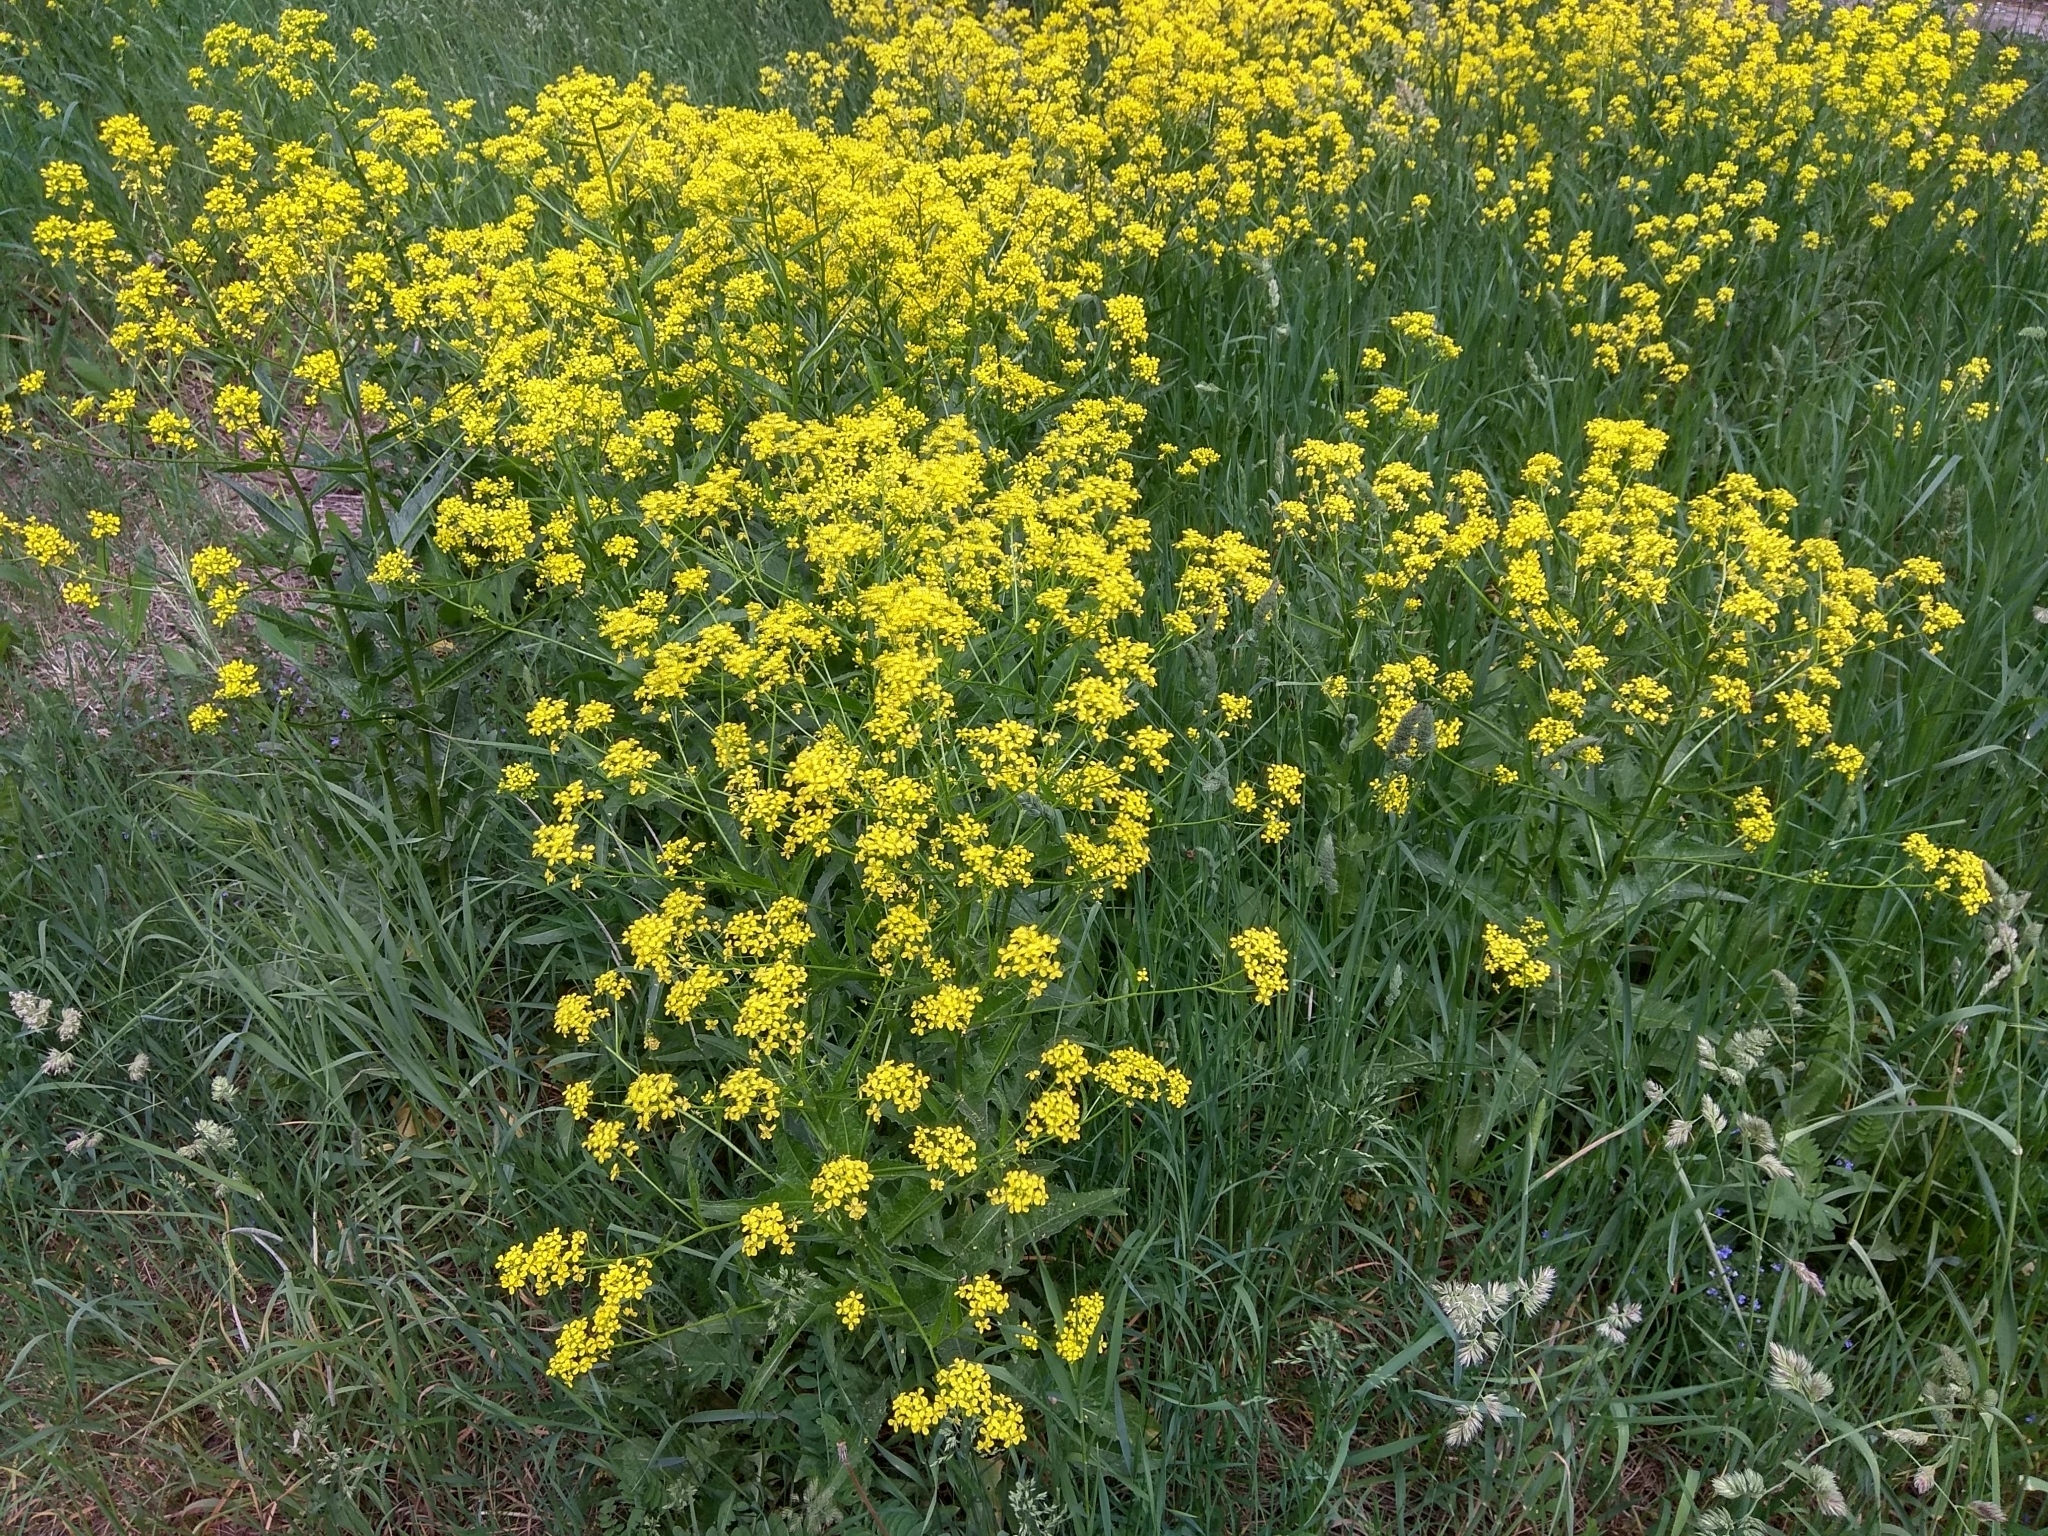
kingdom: Plantae
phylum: Tracheophyta
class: Magnoliopsida
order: Brassicales
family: Brassicaceae
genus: Bunias
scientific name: Bunias orientalis
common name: Warty-cabbage
